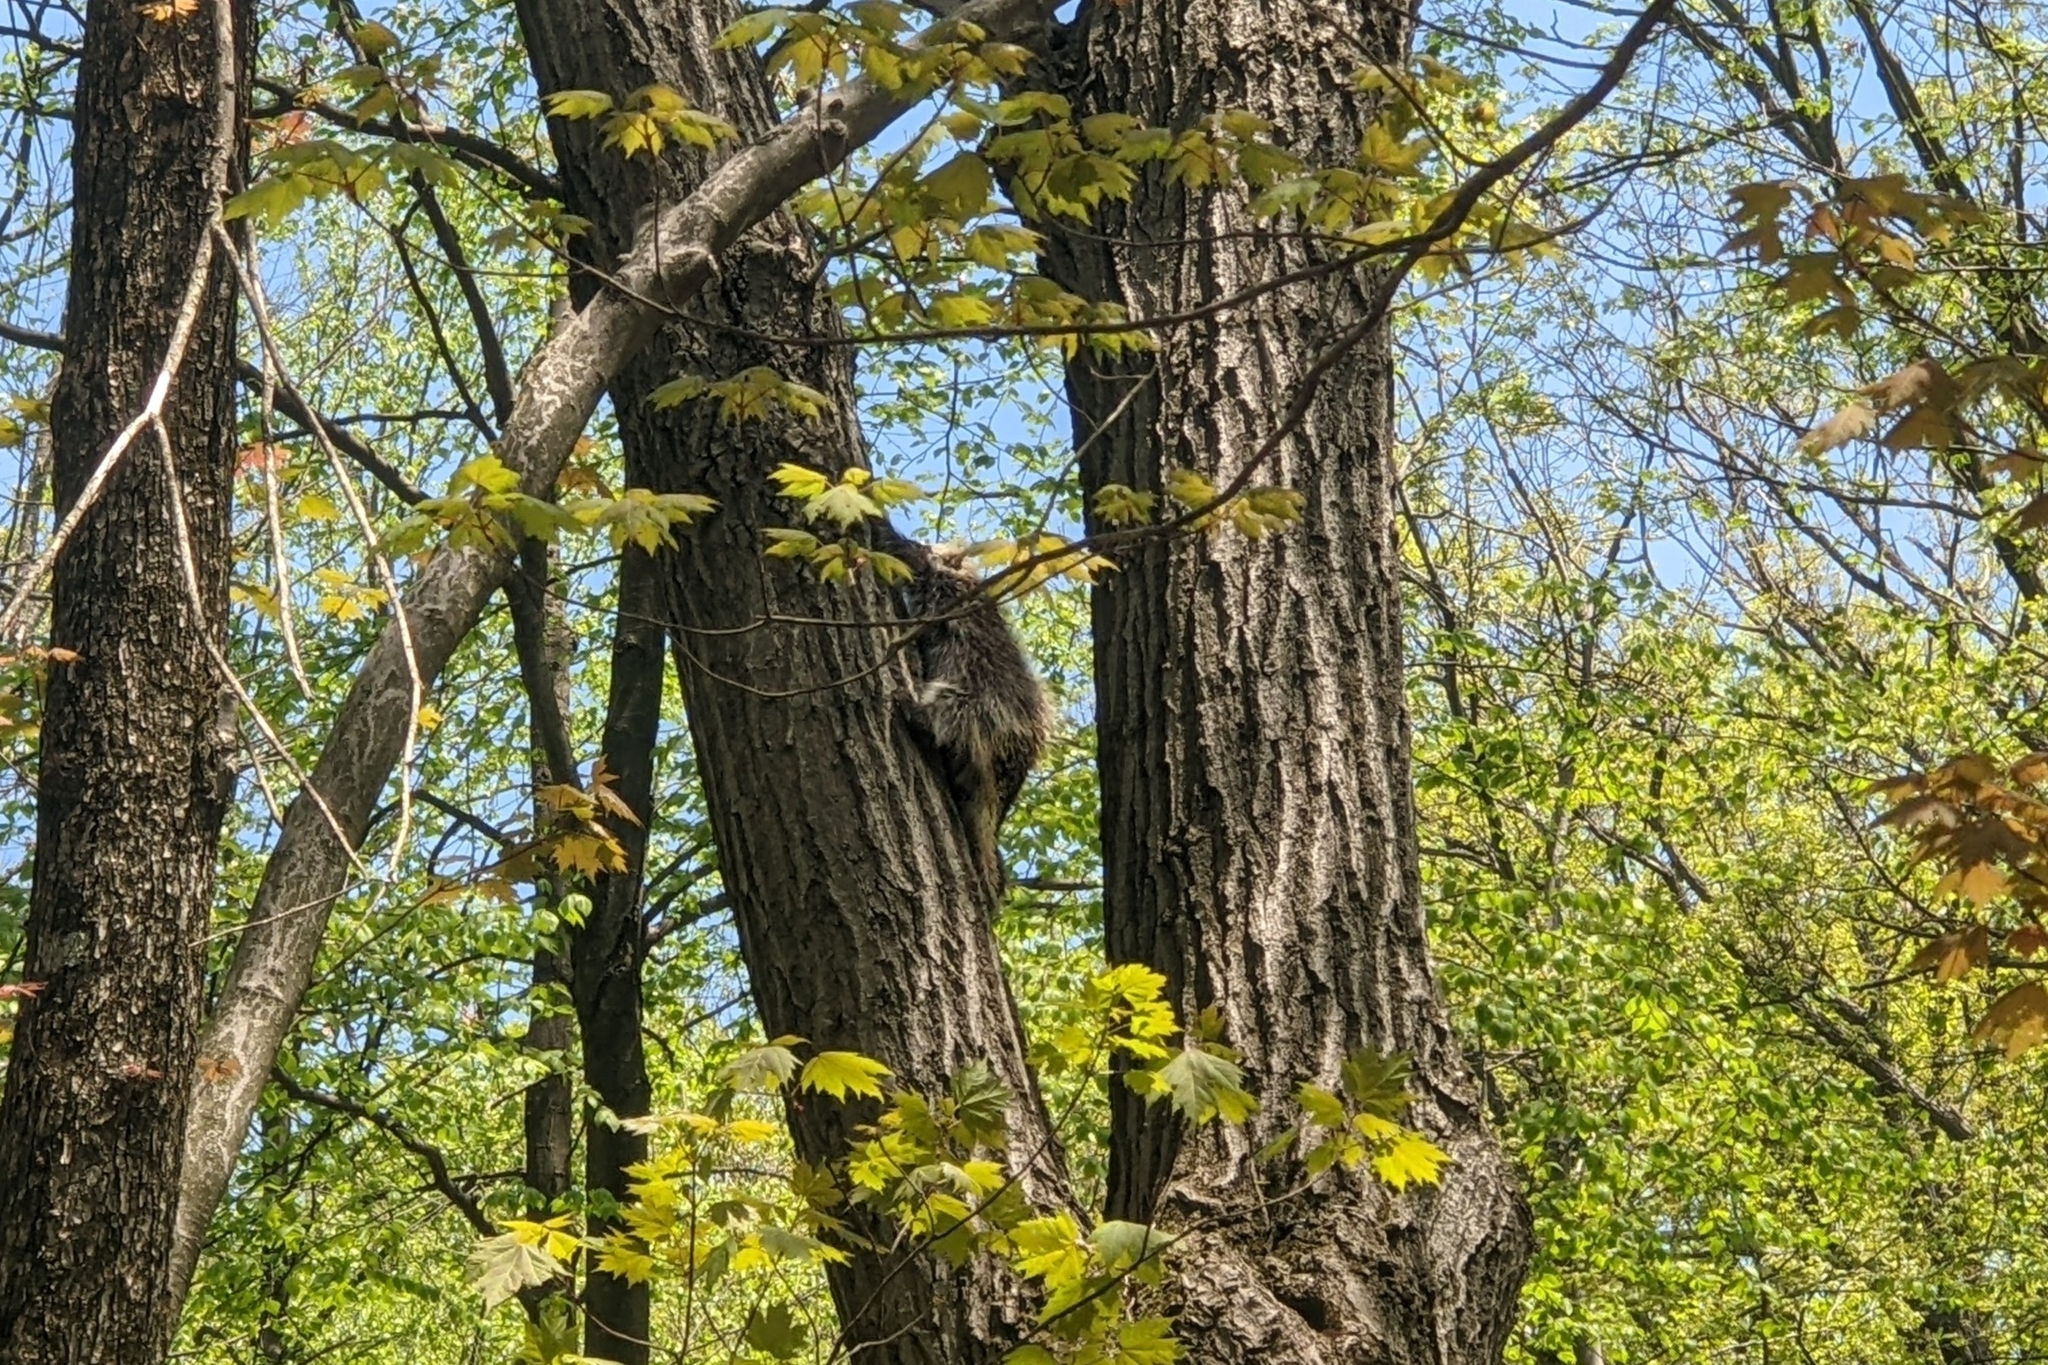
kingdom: Animalia
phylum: Chordata
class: Mammalia
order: Rodentia
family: Erethizontidae
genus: Erethizon
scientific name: Erethizon dorsatus
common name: North american porcupine
